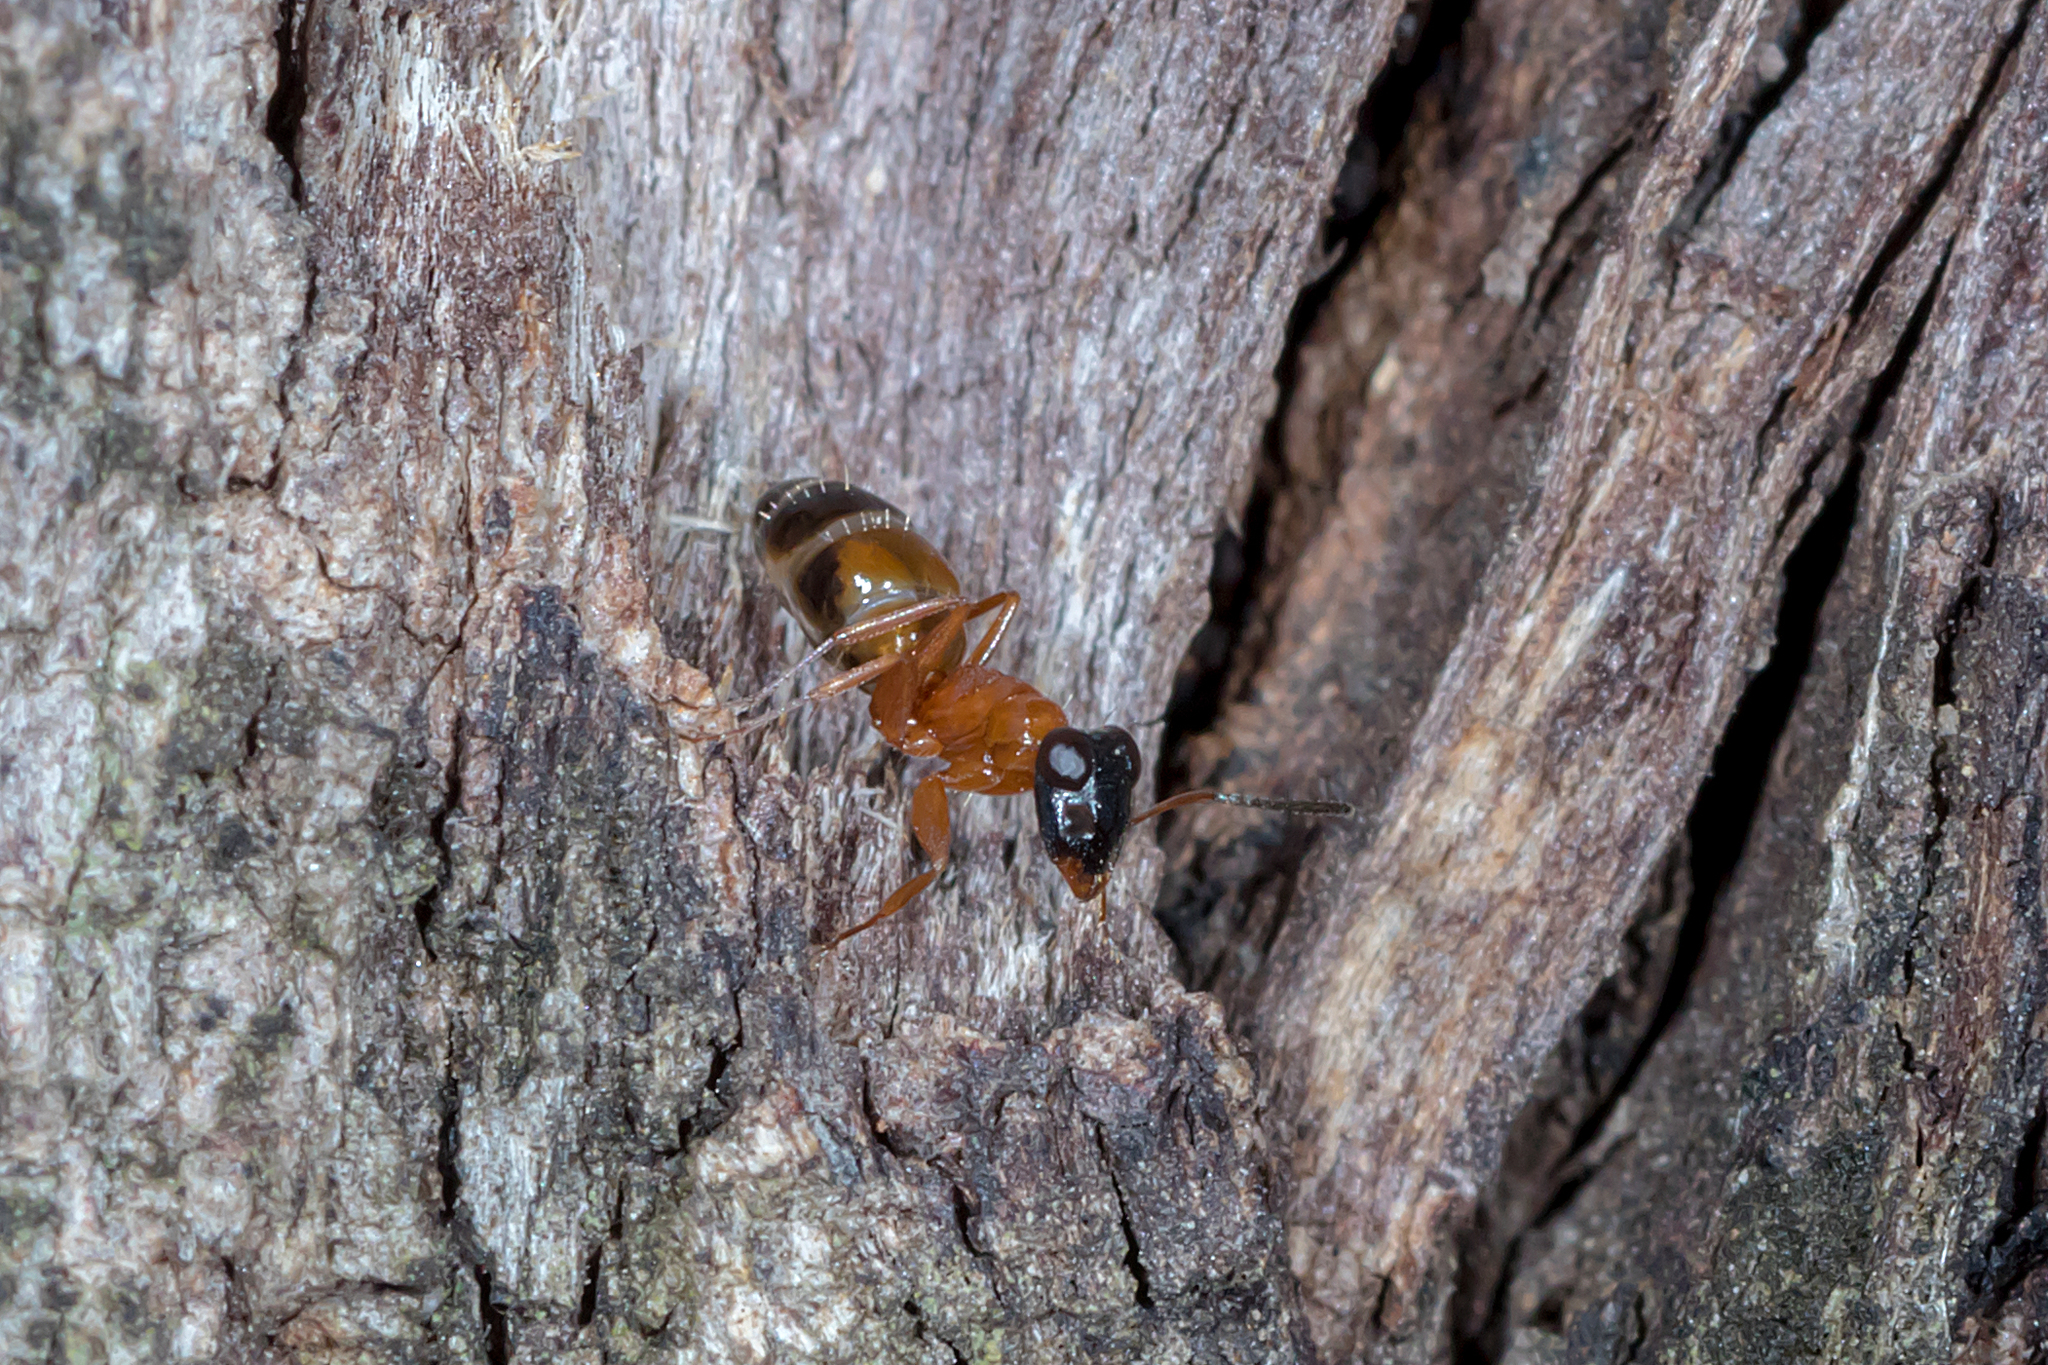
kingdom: Animalia
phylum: Arthropoda
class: Insecta
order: Hymenoptera
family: Formicidae
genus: Opisthopsis
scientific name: Opisthopsis rufithorax
